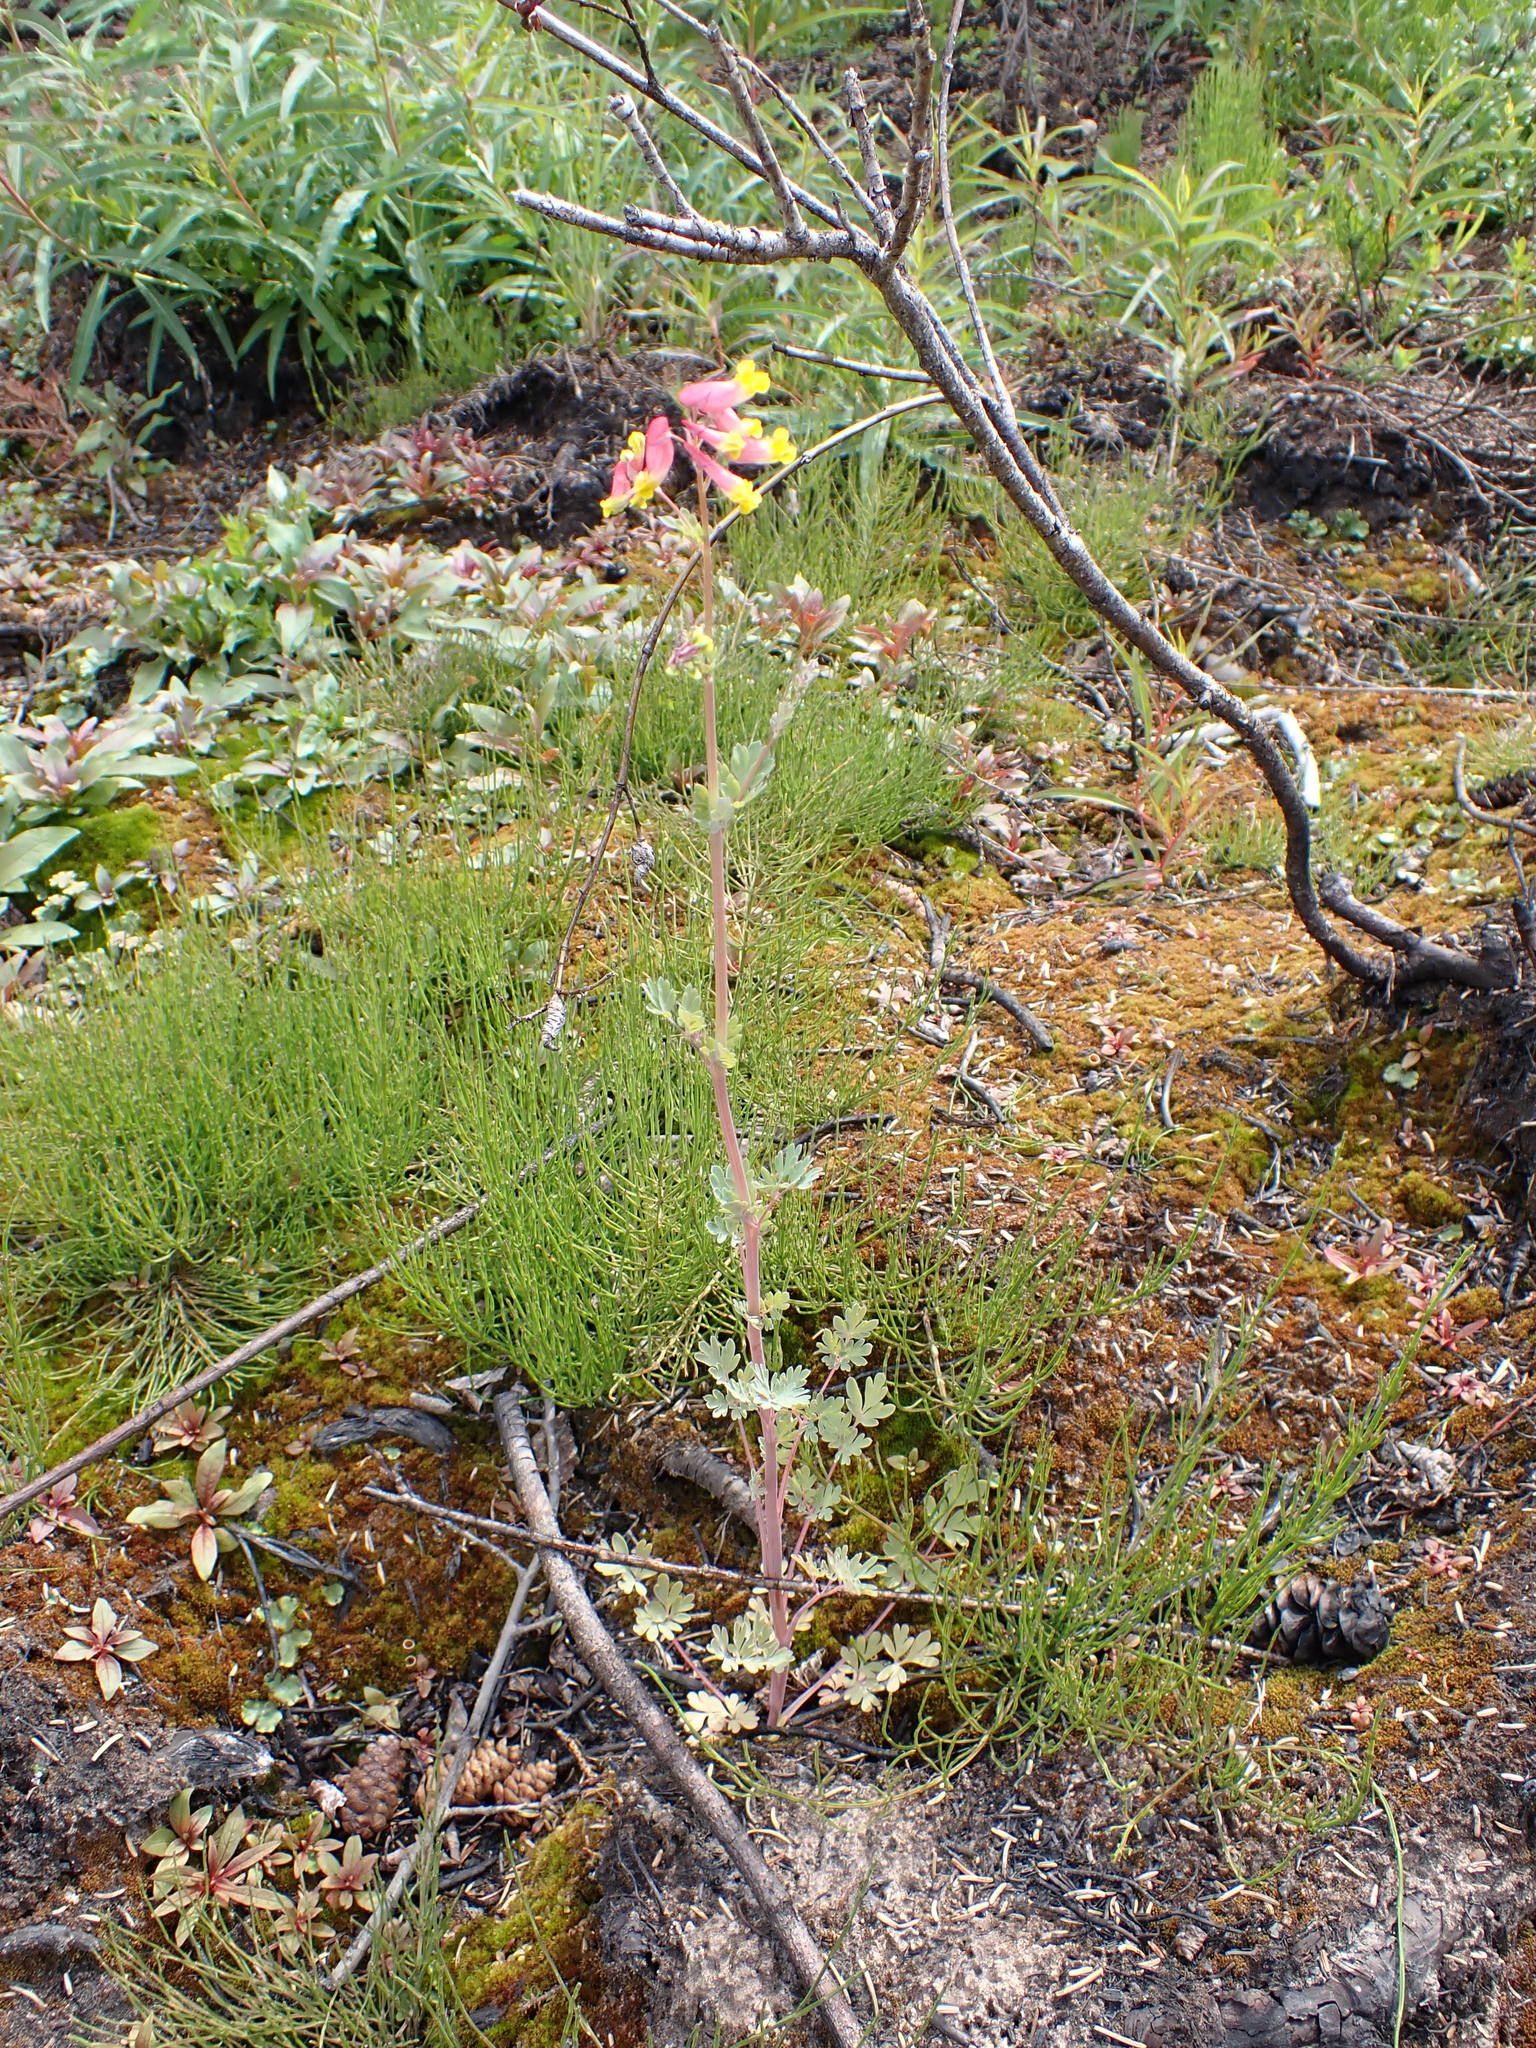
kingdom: Plantae
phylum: Tracheophyta
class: Magnoliopsida
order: Ranunculales
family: Papaveraceae
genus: Capnoides
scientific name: Capnoides sempervirens
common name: Rock harlequin
